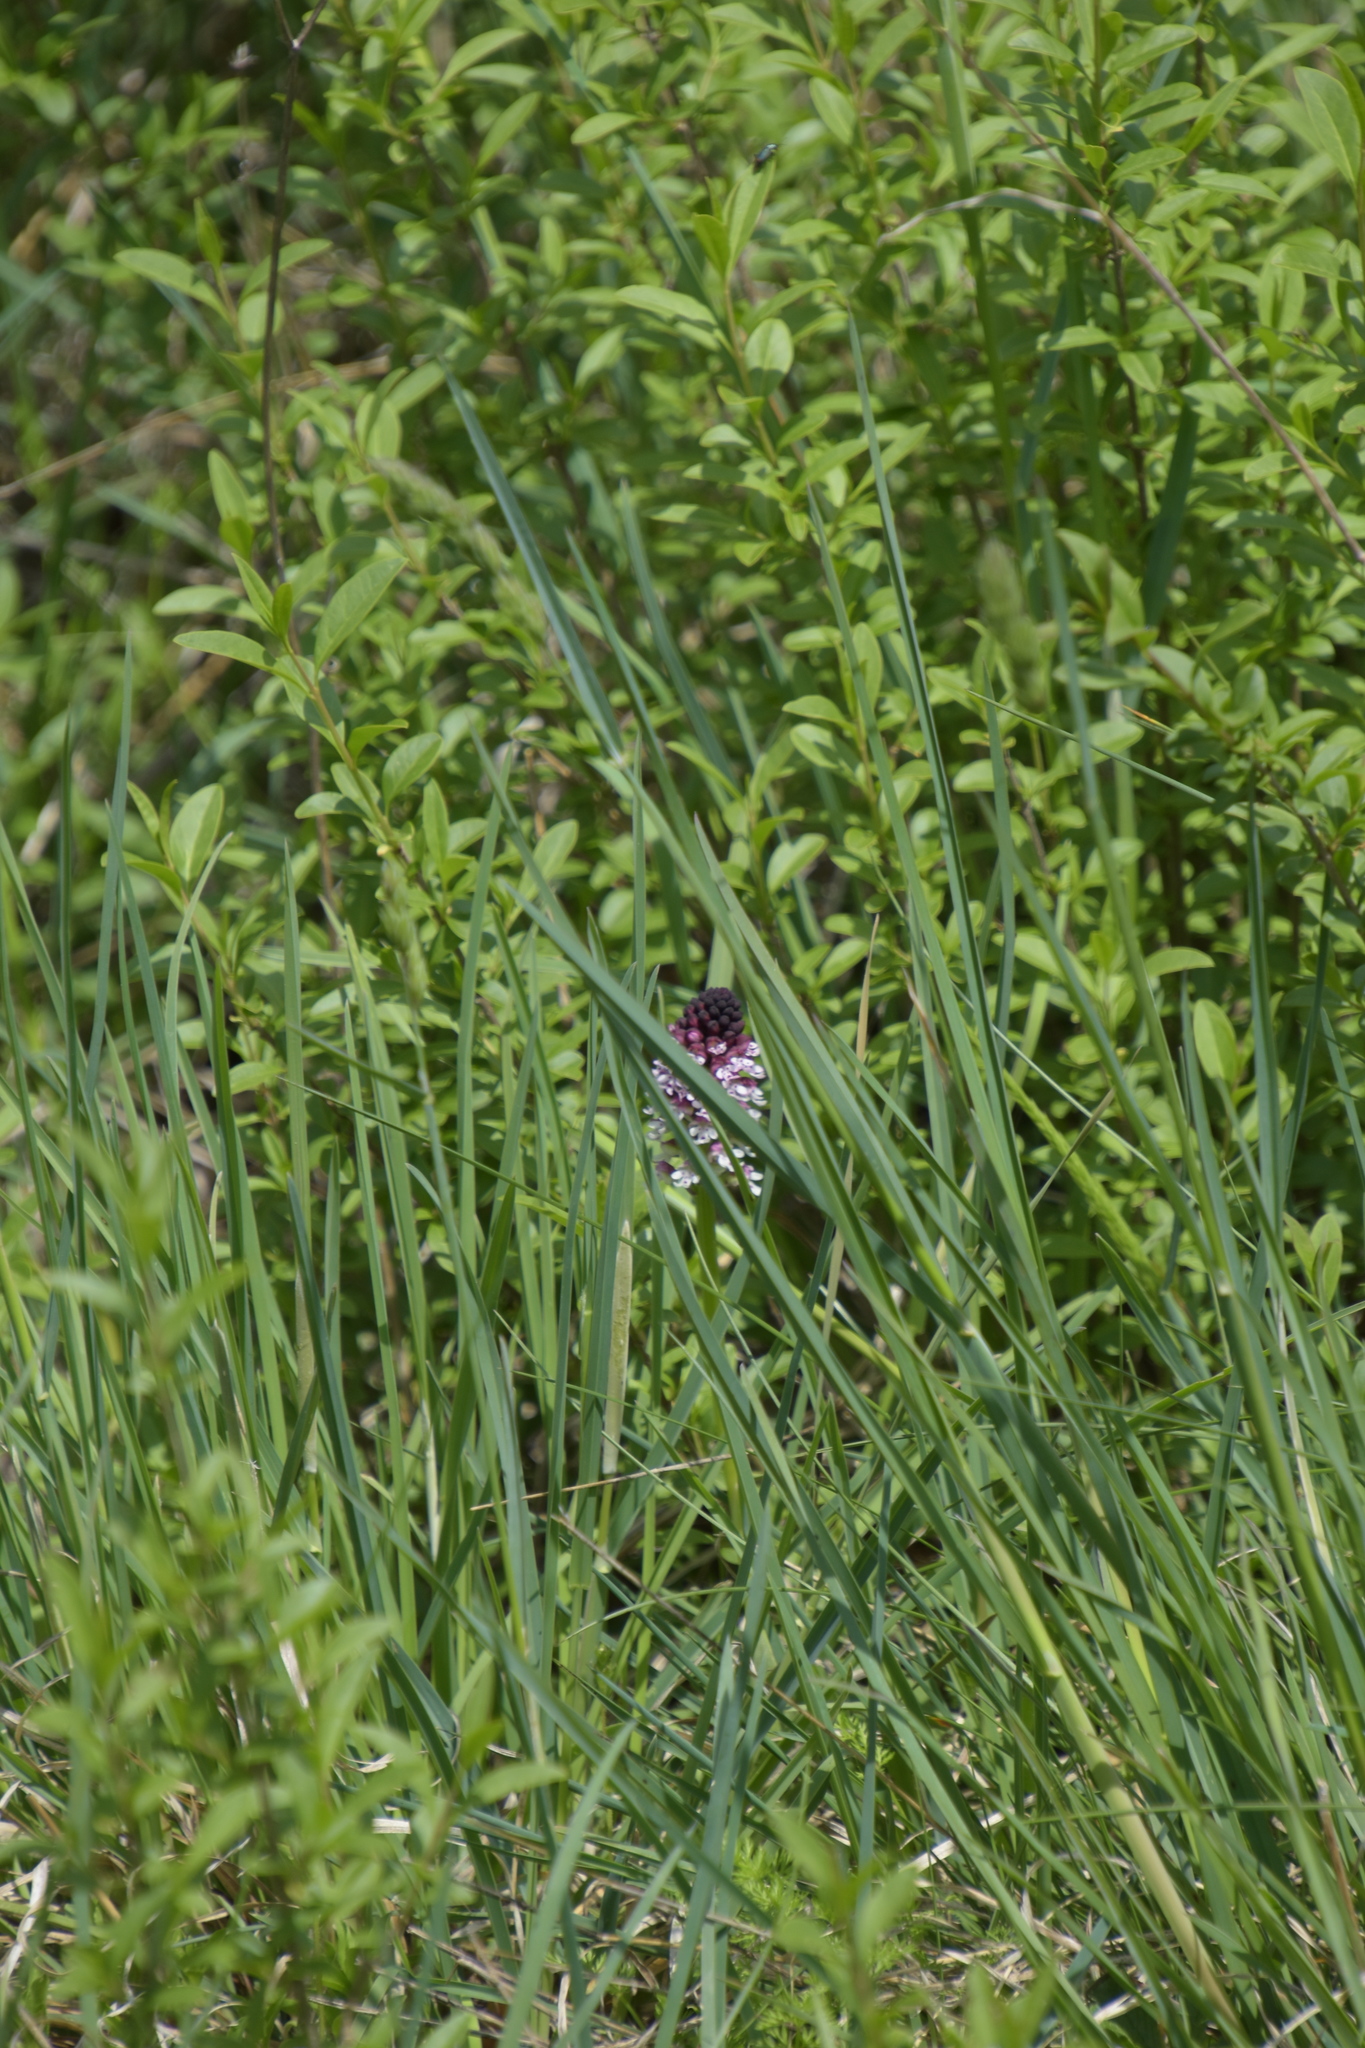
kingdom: Plantae
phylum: Tracheophyta
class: Liliopsida
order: Asparagales
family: Orchidaceae
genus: Neotinea
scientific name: Neotinea ustulata
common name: Burnt orchid
